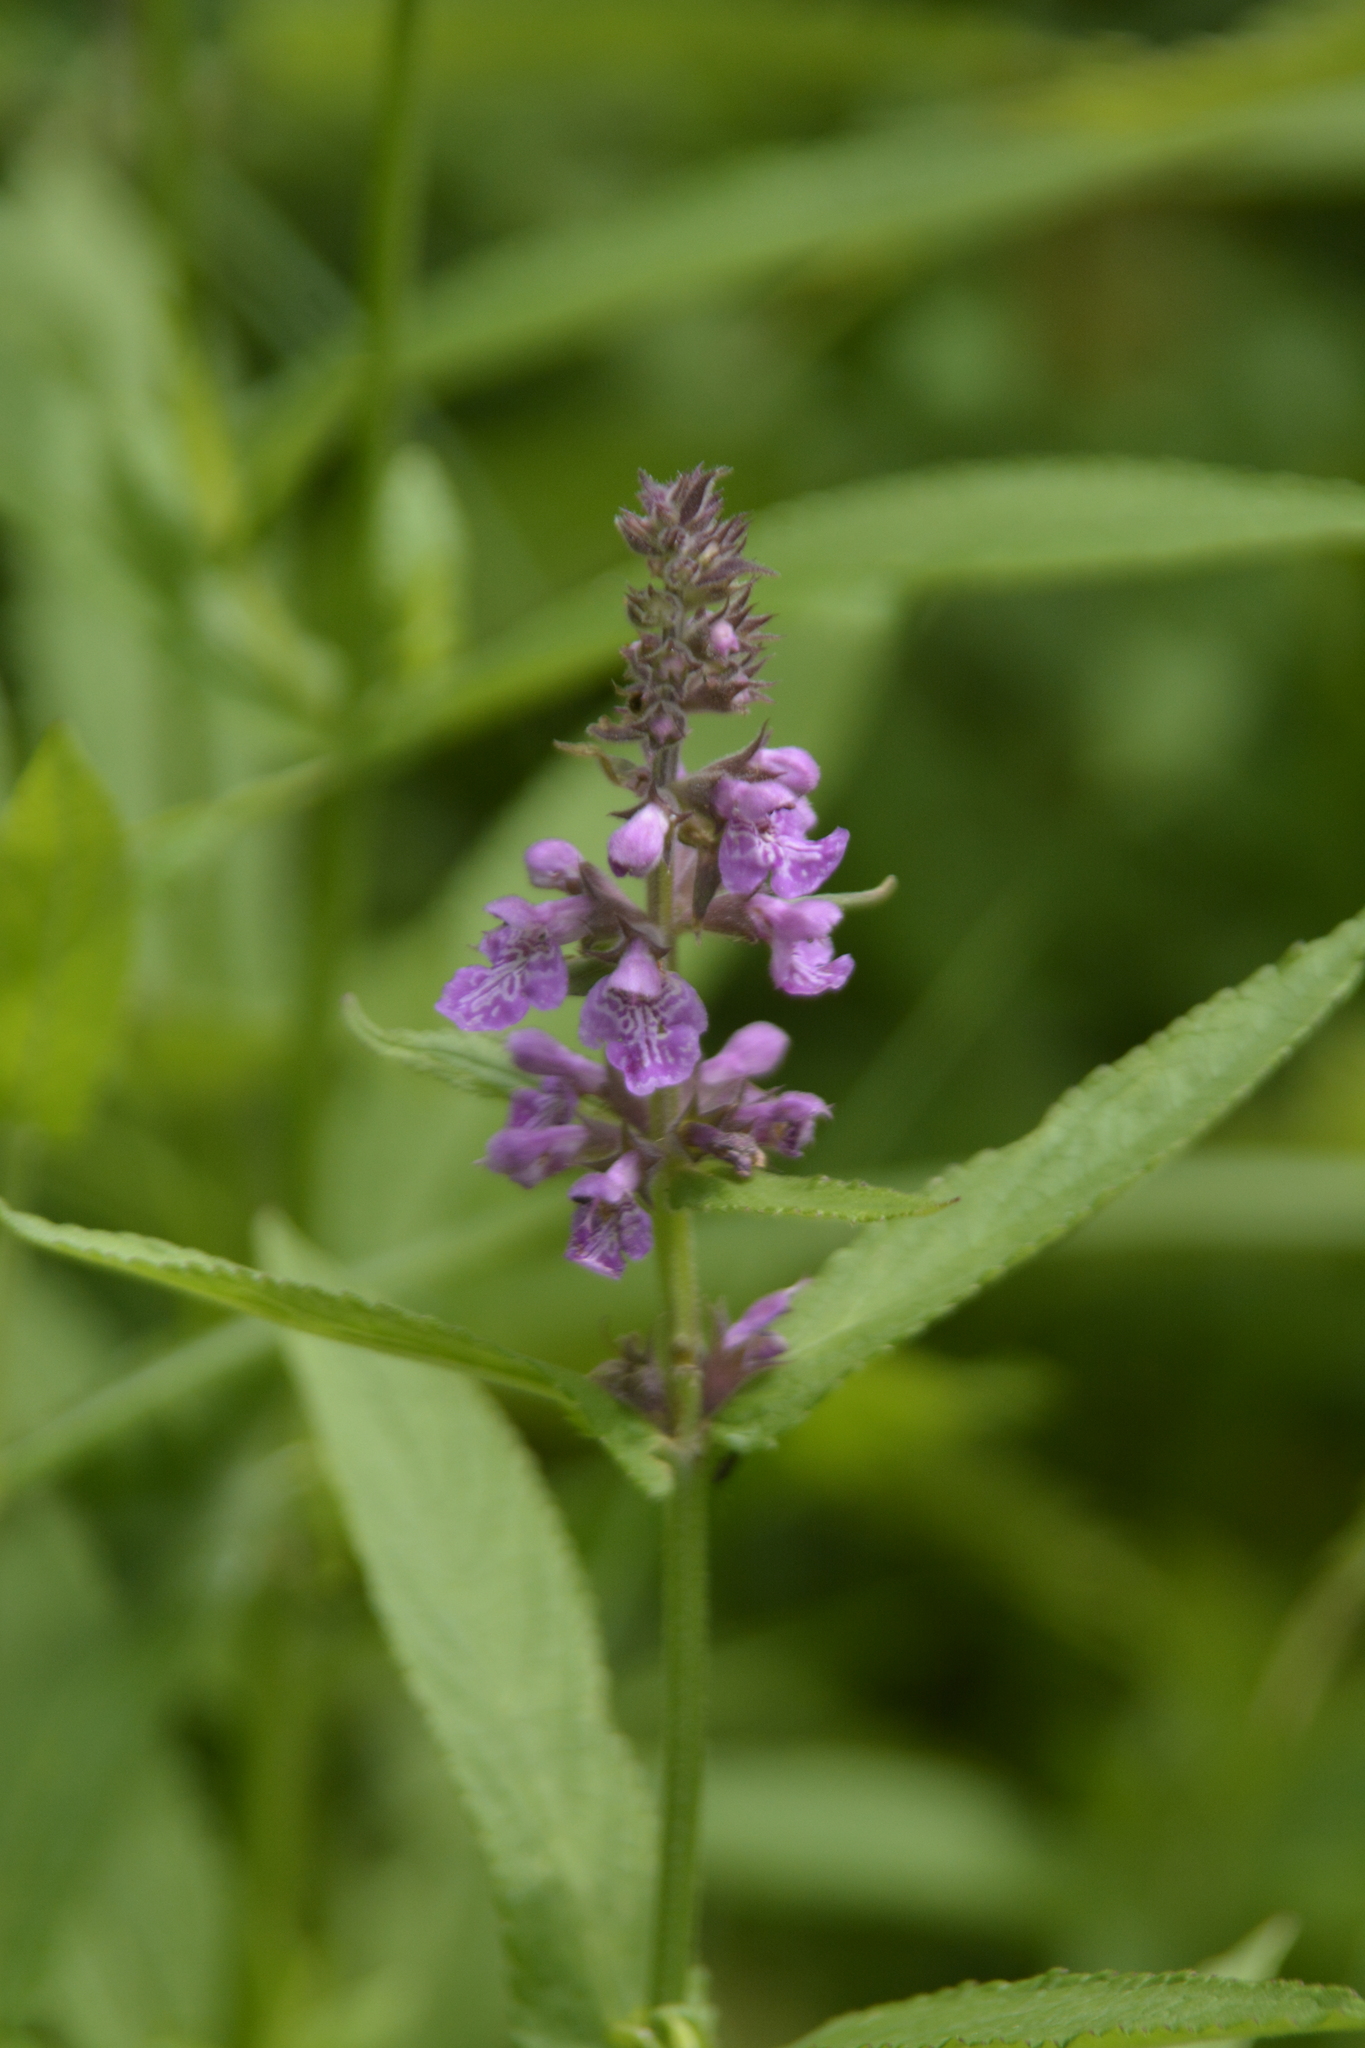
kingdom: Plantae
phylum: Tracheophyta
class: Magnoliopsida
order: Lamiales
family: Lamiaceae
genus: Stachys
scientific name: Stachys palustris
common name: Marsh woundwort
